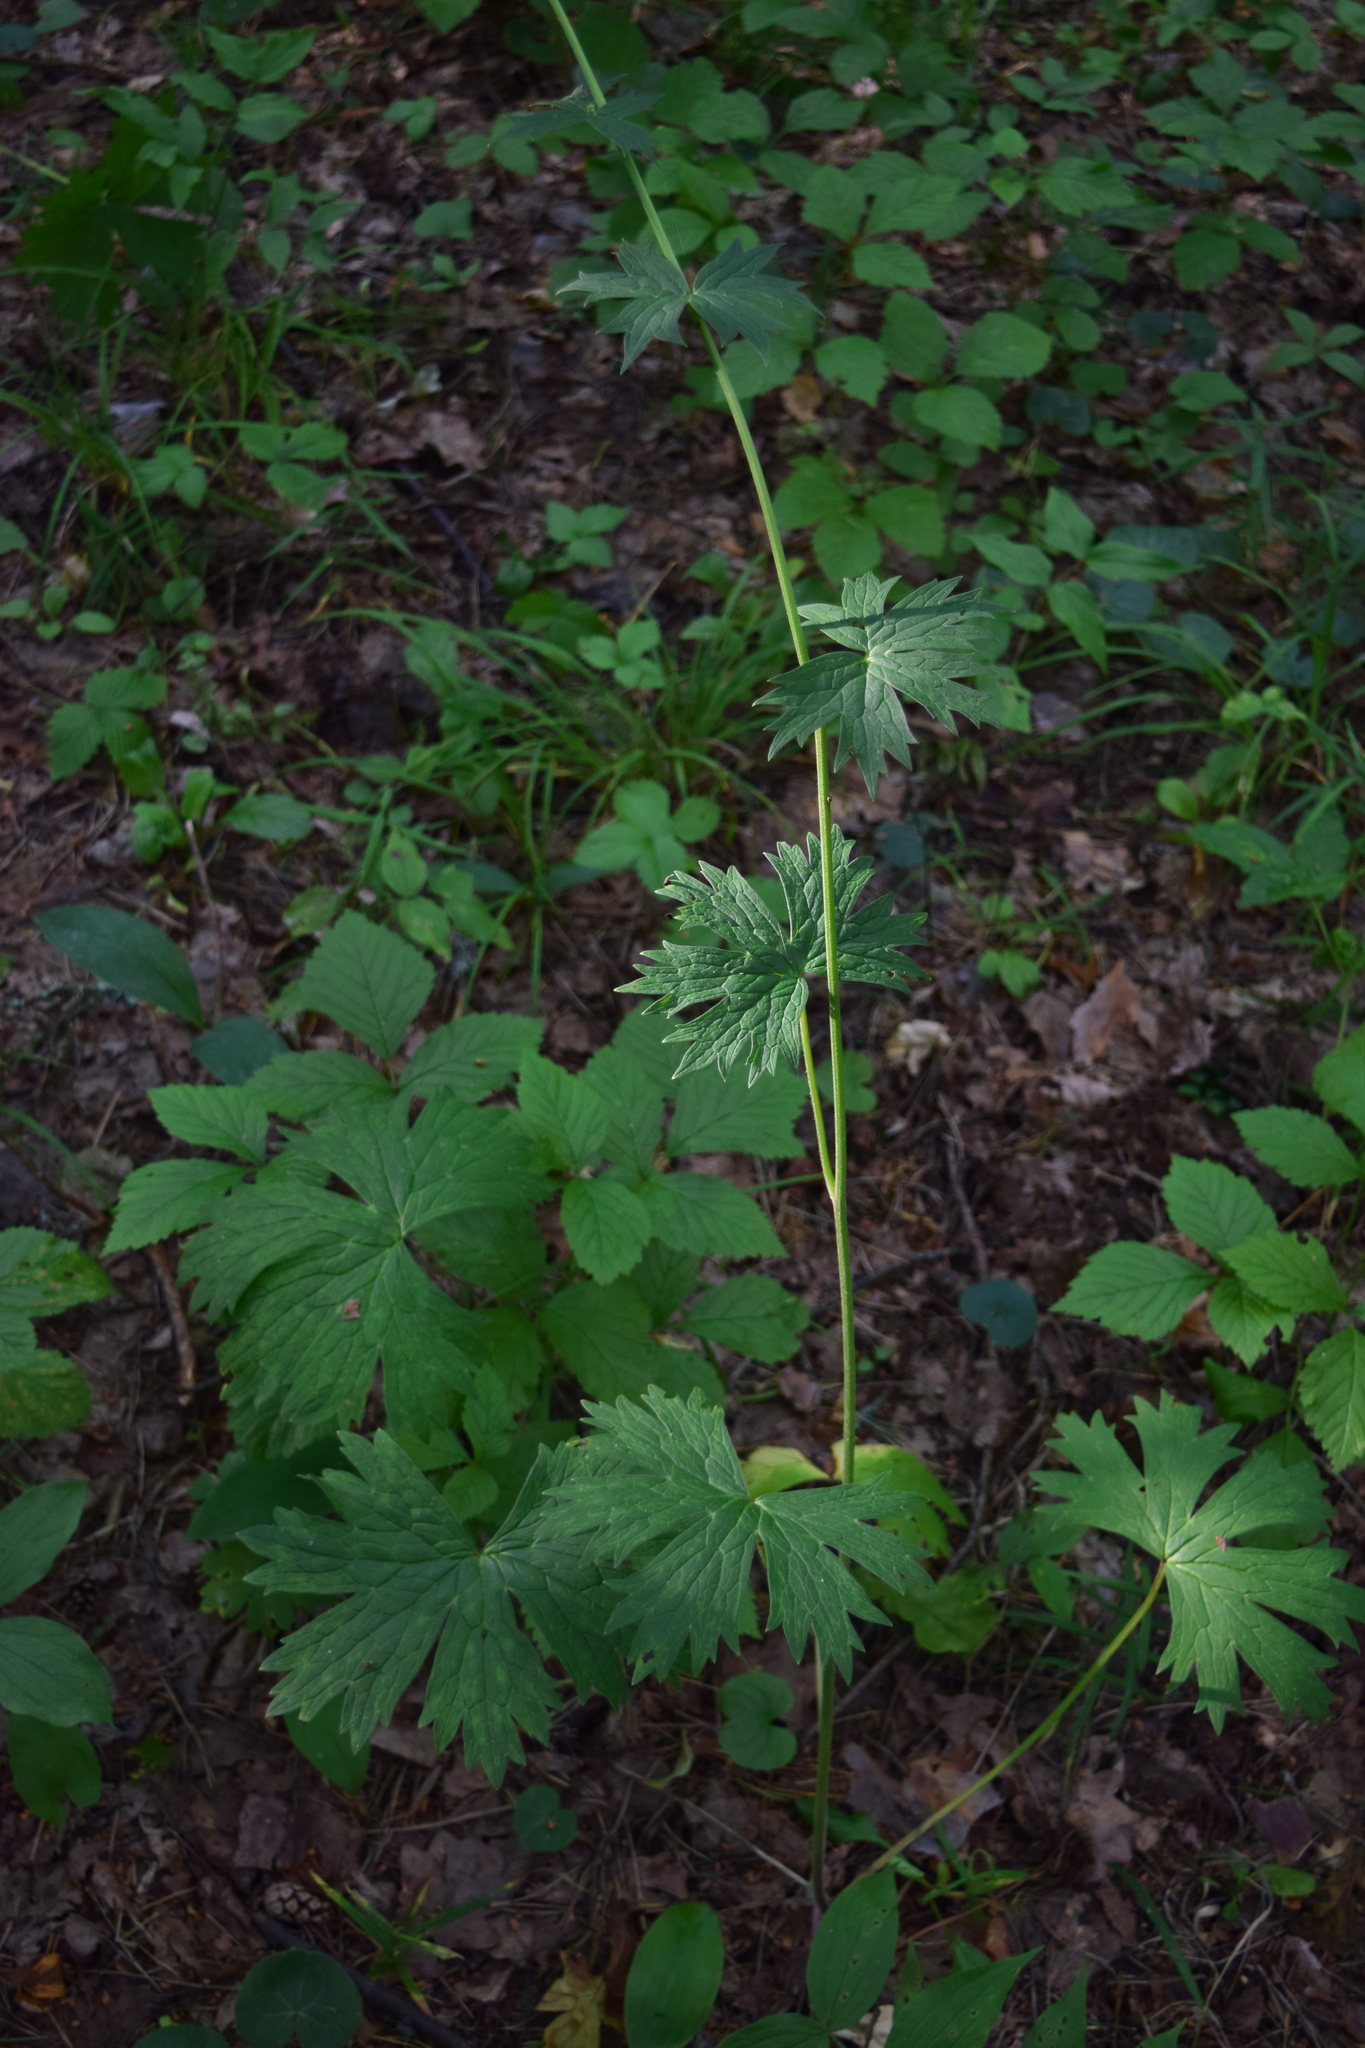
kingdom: Plantae
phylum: Tracheophyta
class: Magnoliopsida
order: Ranunculales
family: Ranunculaceae
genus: Aconitum
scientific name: Aconitum lasiostomum
